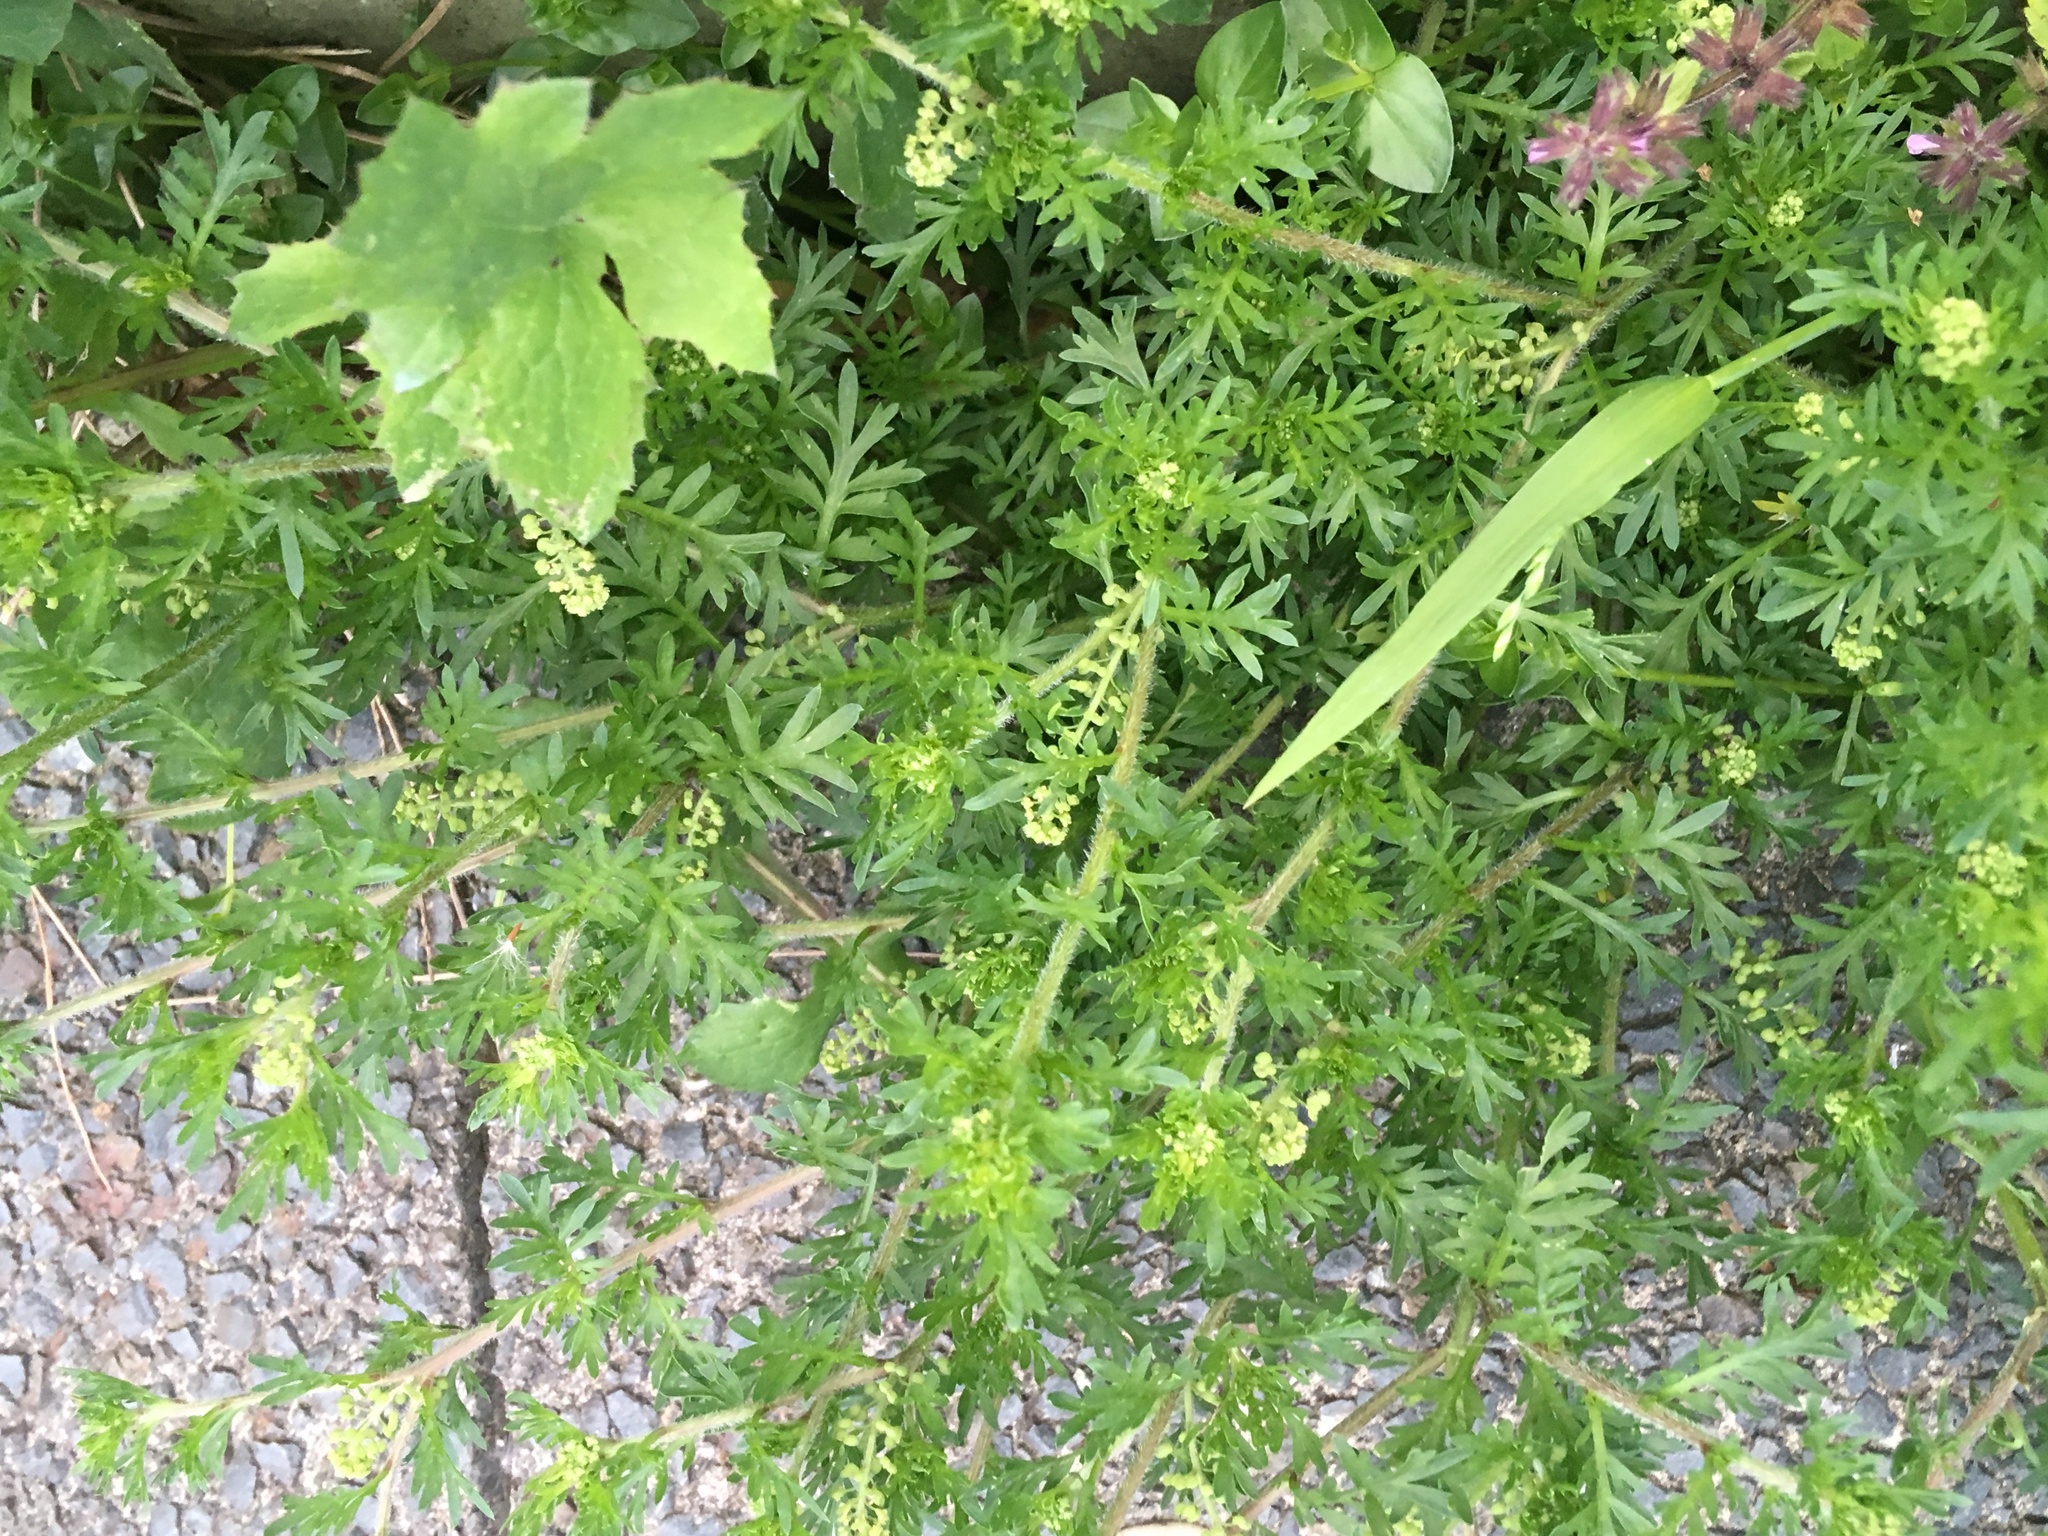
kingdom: Plantae
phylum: Tracheophyta
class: Magnoliopsida
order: Brassicales
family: Brassicaceae
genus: Lepidium
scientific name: Lepidium didymum
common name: Lesser swinecress
